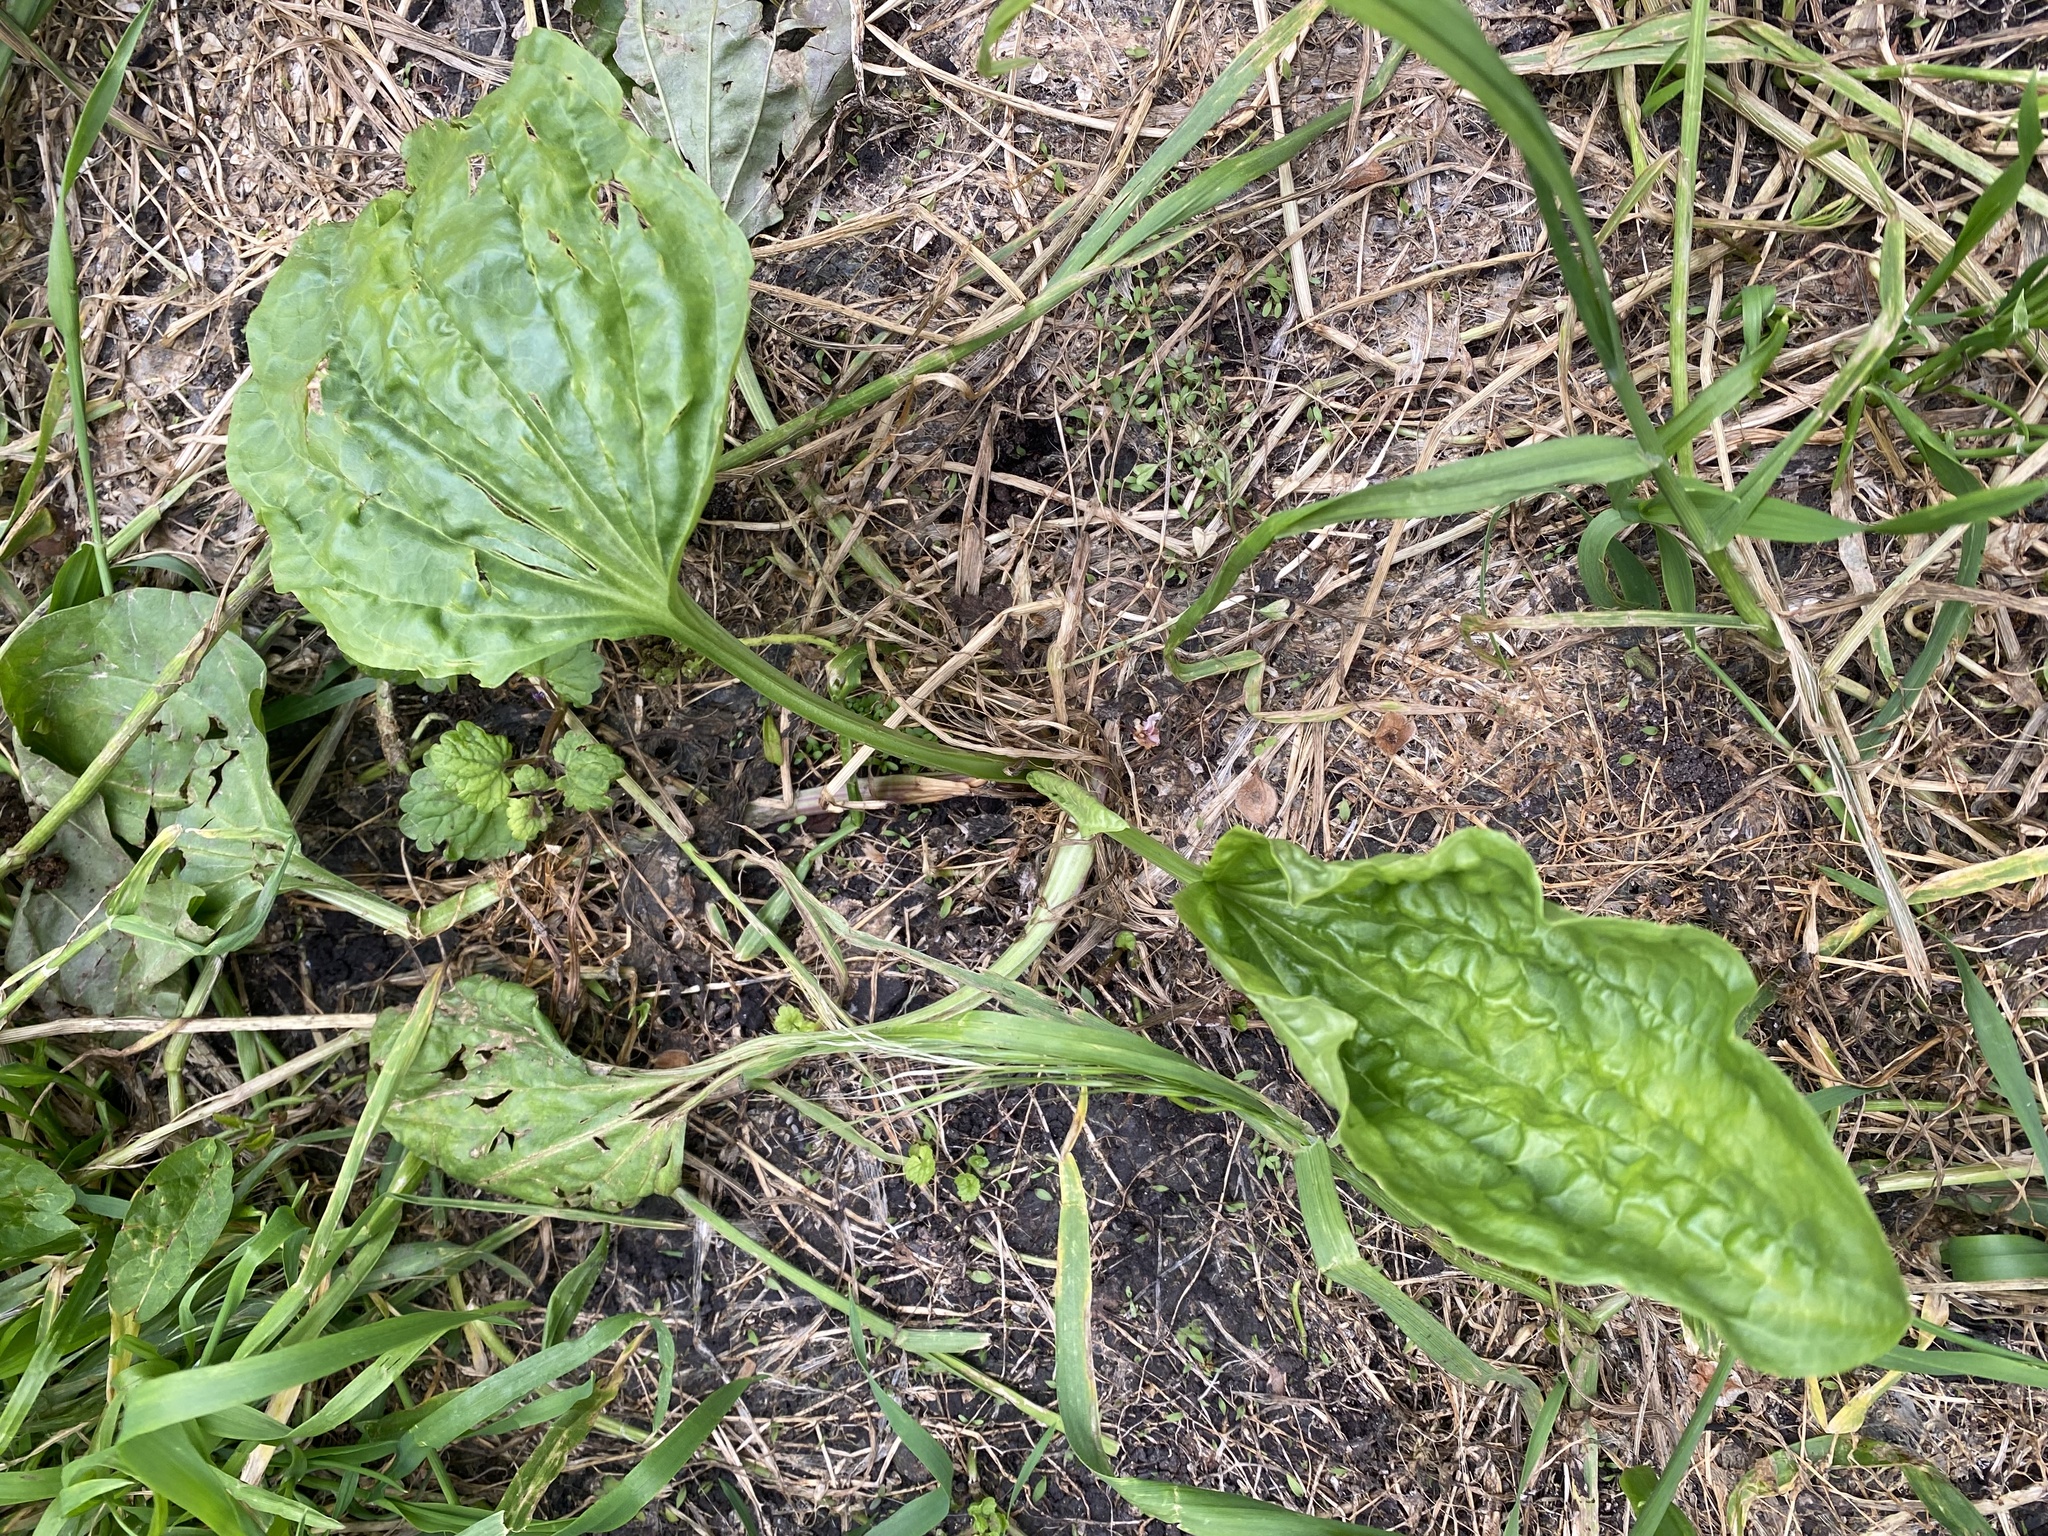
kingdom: Plantae
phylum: Tracheophyta
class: Magnoliopsida
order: Lamiales
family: Plantaginaceae
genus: Plantago
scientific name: Plantago major
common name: Common plantain
